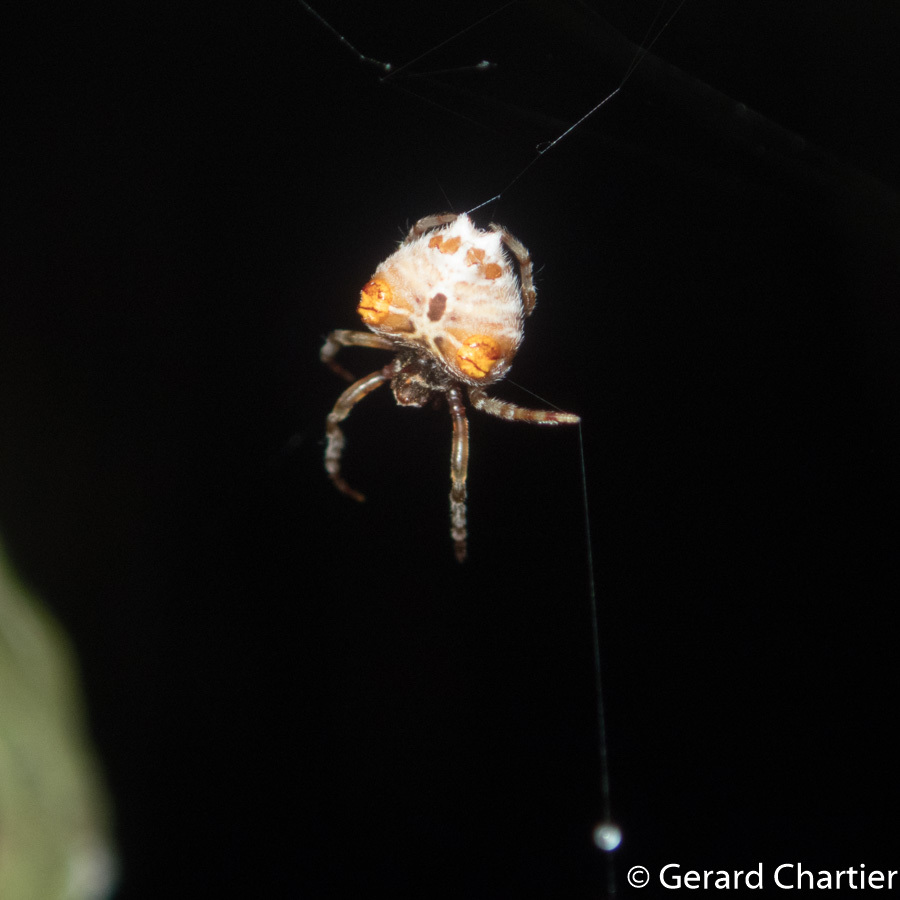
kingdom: Animalia
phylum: Arthropoda
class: Arachnida
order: Araneae
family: Araneidae
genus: Ordgarius
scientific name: Ordgarius sexspinosus
